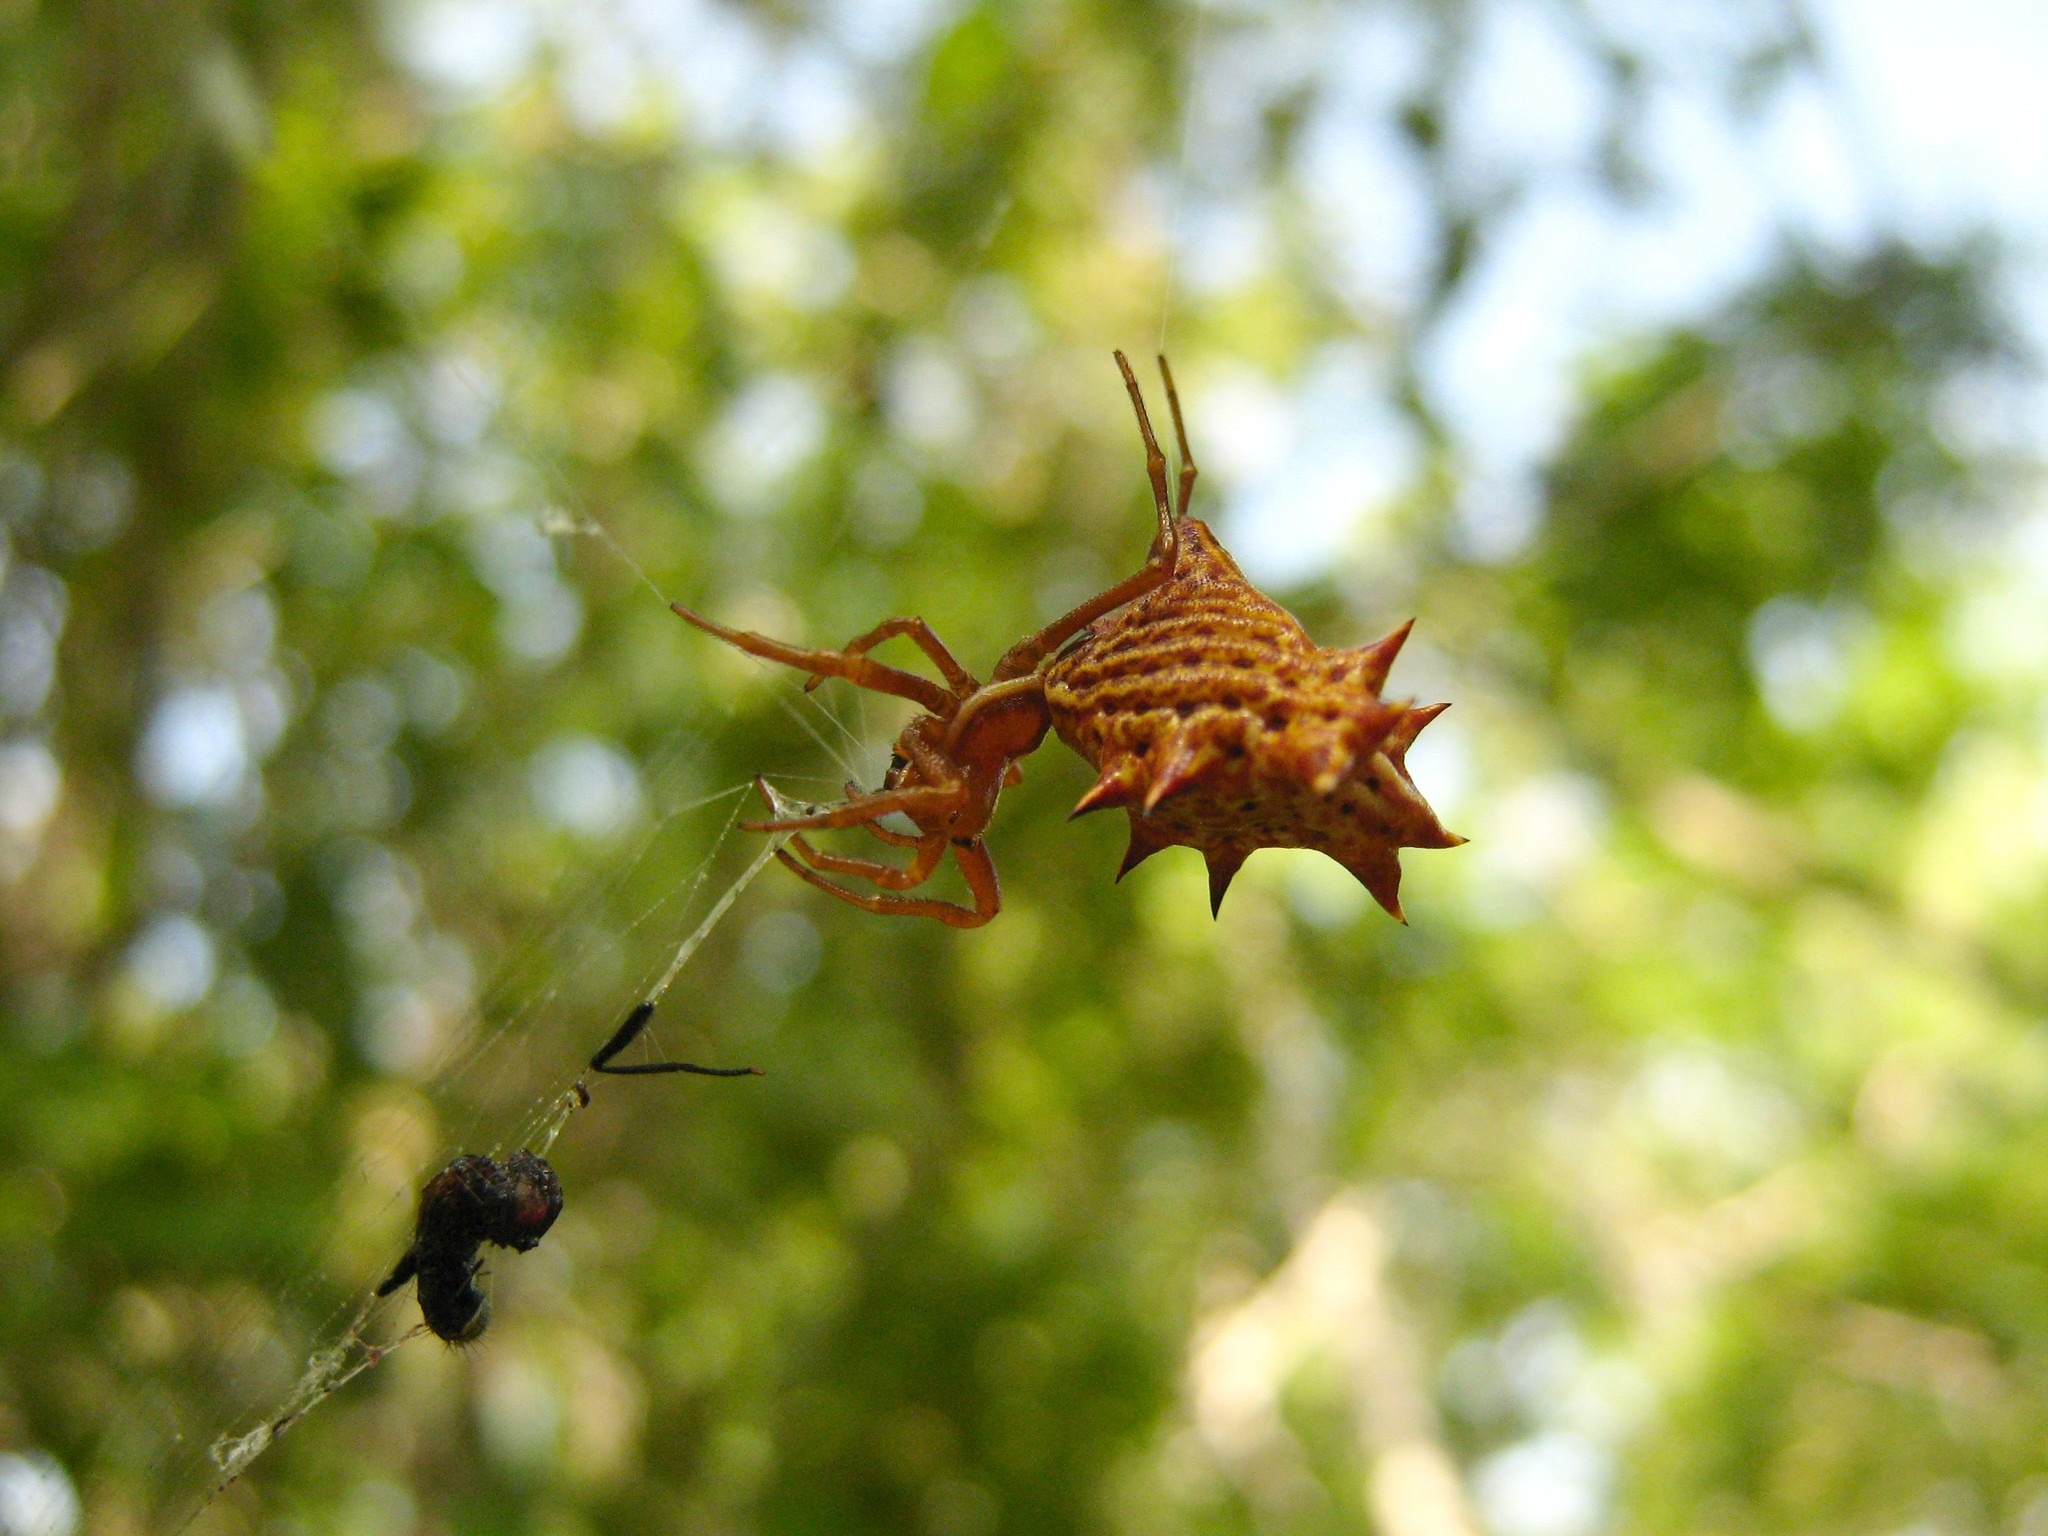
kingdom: Animalia
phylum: Arthropoda
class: Arachnida
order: Araneae
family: Araneidae
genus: Micrathena
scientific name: Micrathena gracilis
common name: Orb weavers
